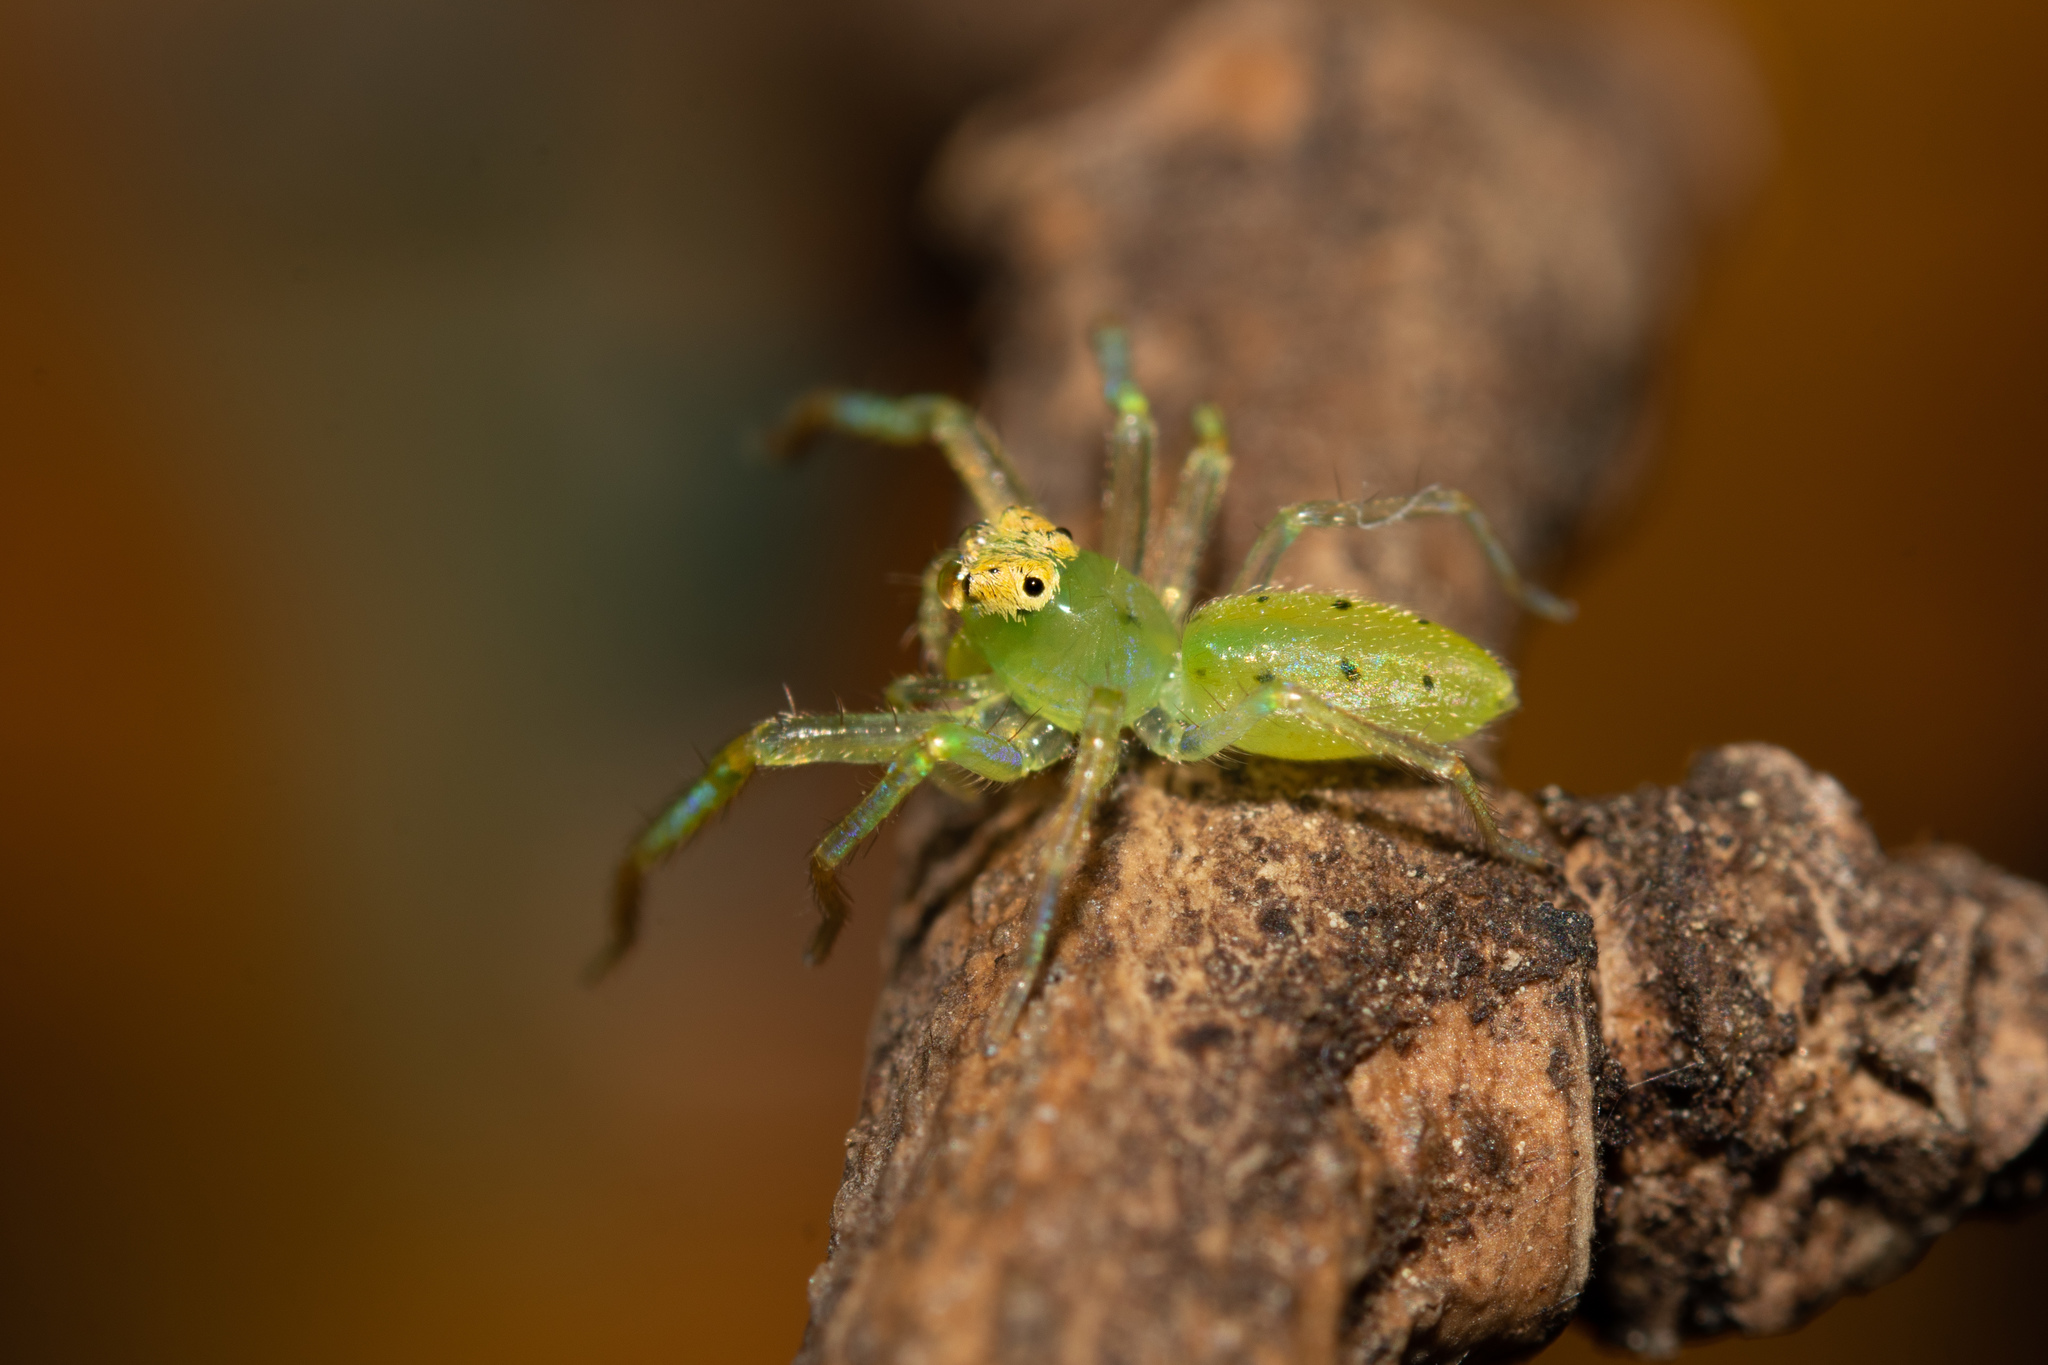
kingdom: Animalia
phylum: Arthropoda
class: Arachnida
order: Araneae
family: Salticidae
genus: Lyssomanes
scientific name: Lyssomanes viridis
